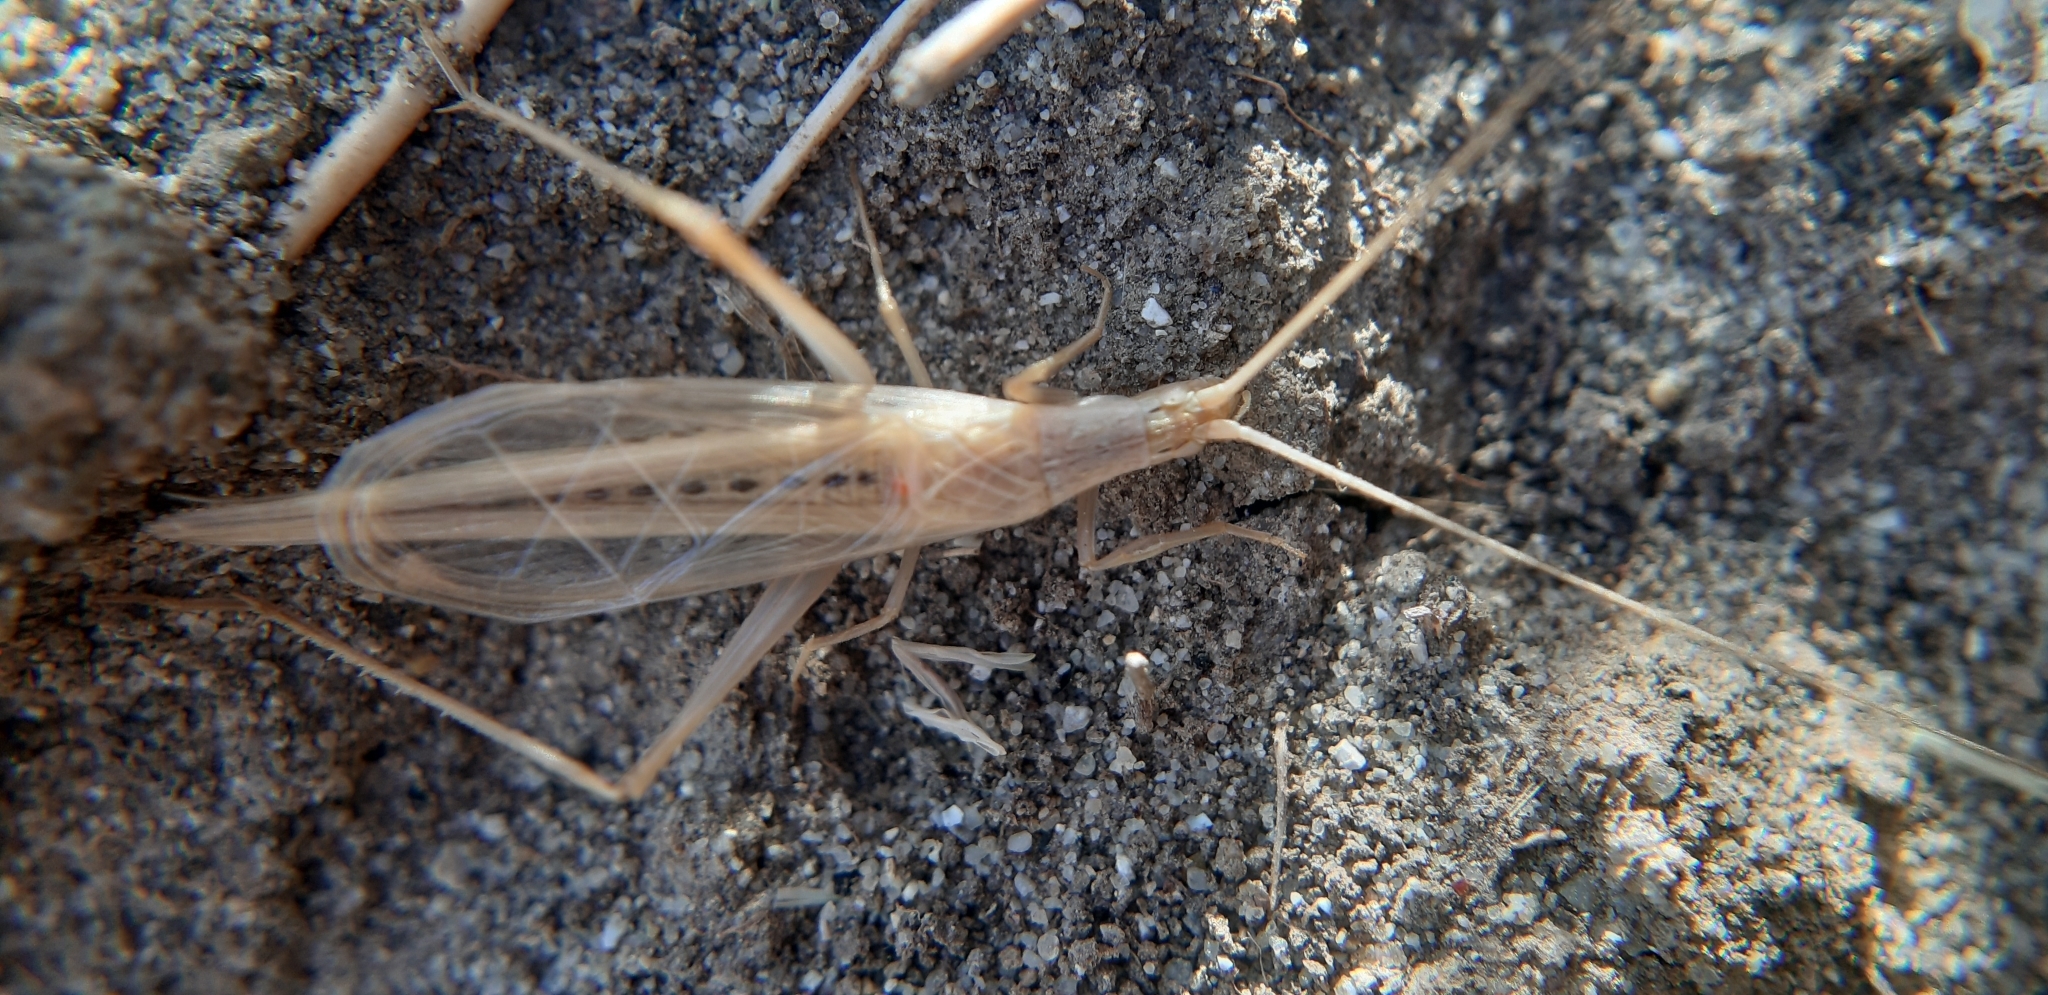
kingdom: Animalia
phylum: Arthropoda
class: Insecta
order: Orthoptera
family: Gryllidae
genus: Oecanthus
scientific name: Oecanthus dulcisonans
